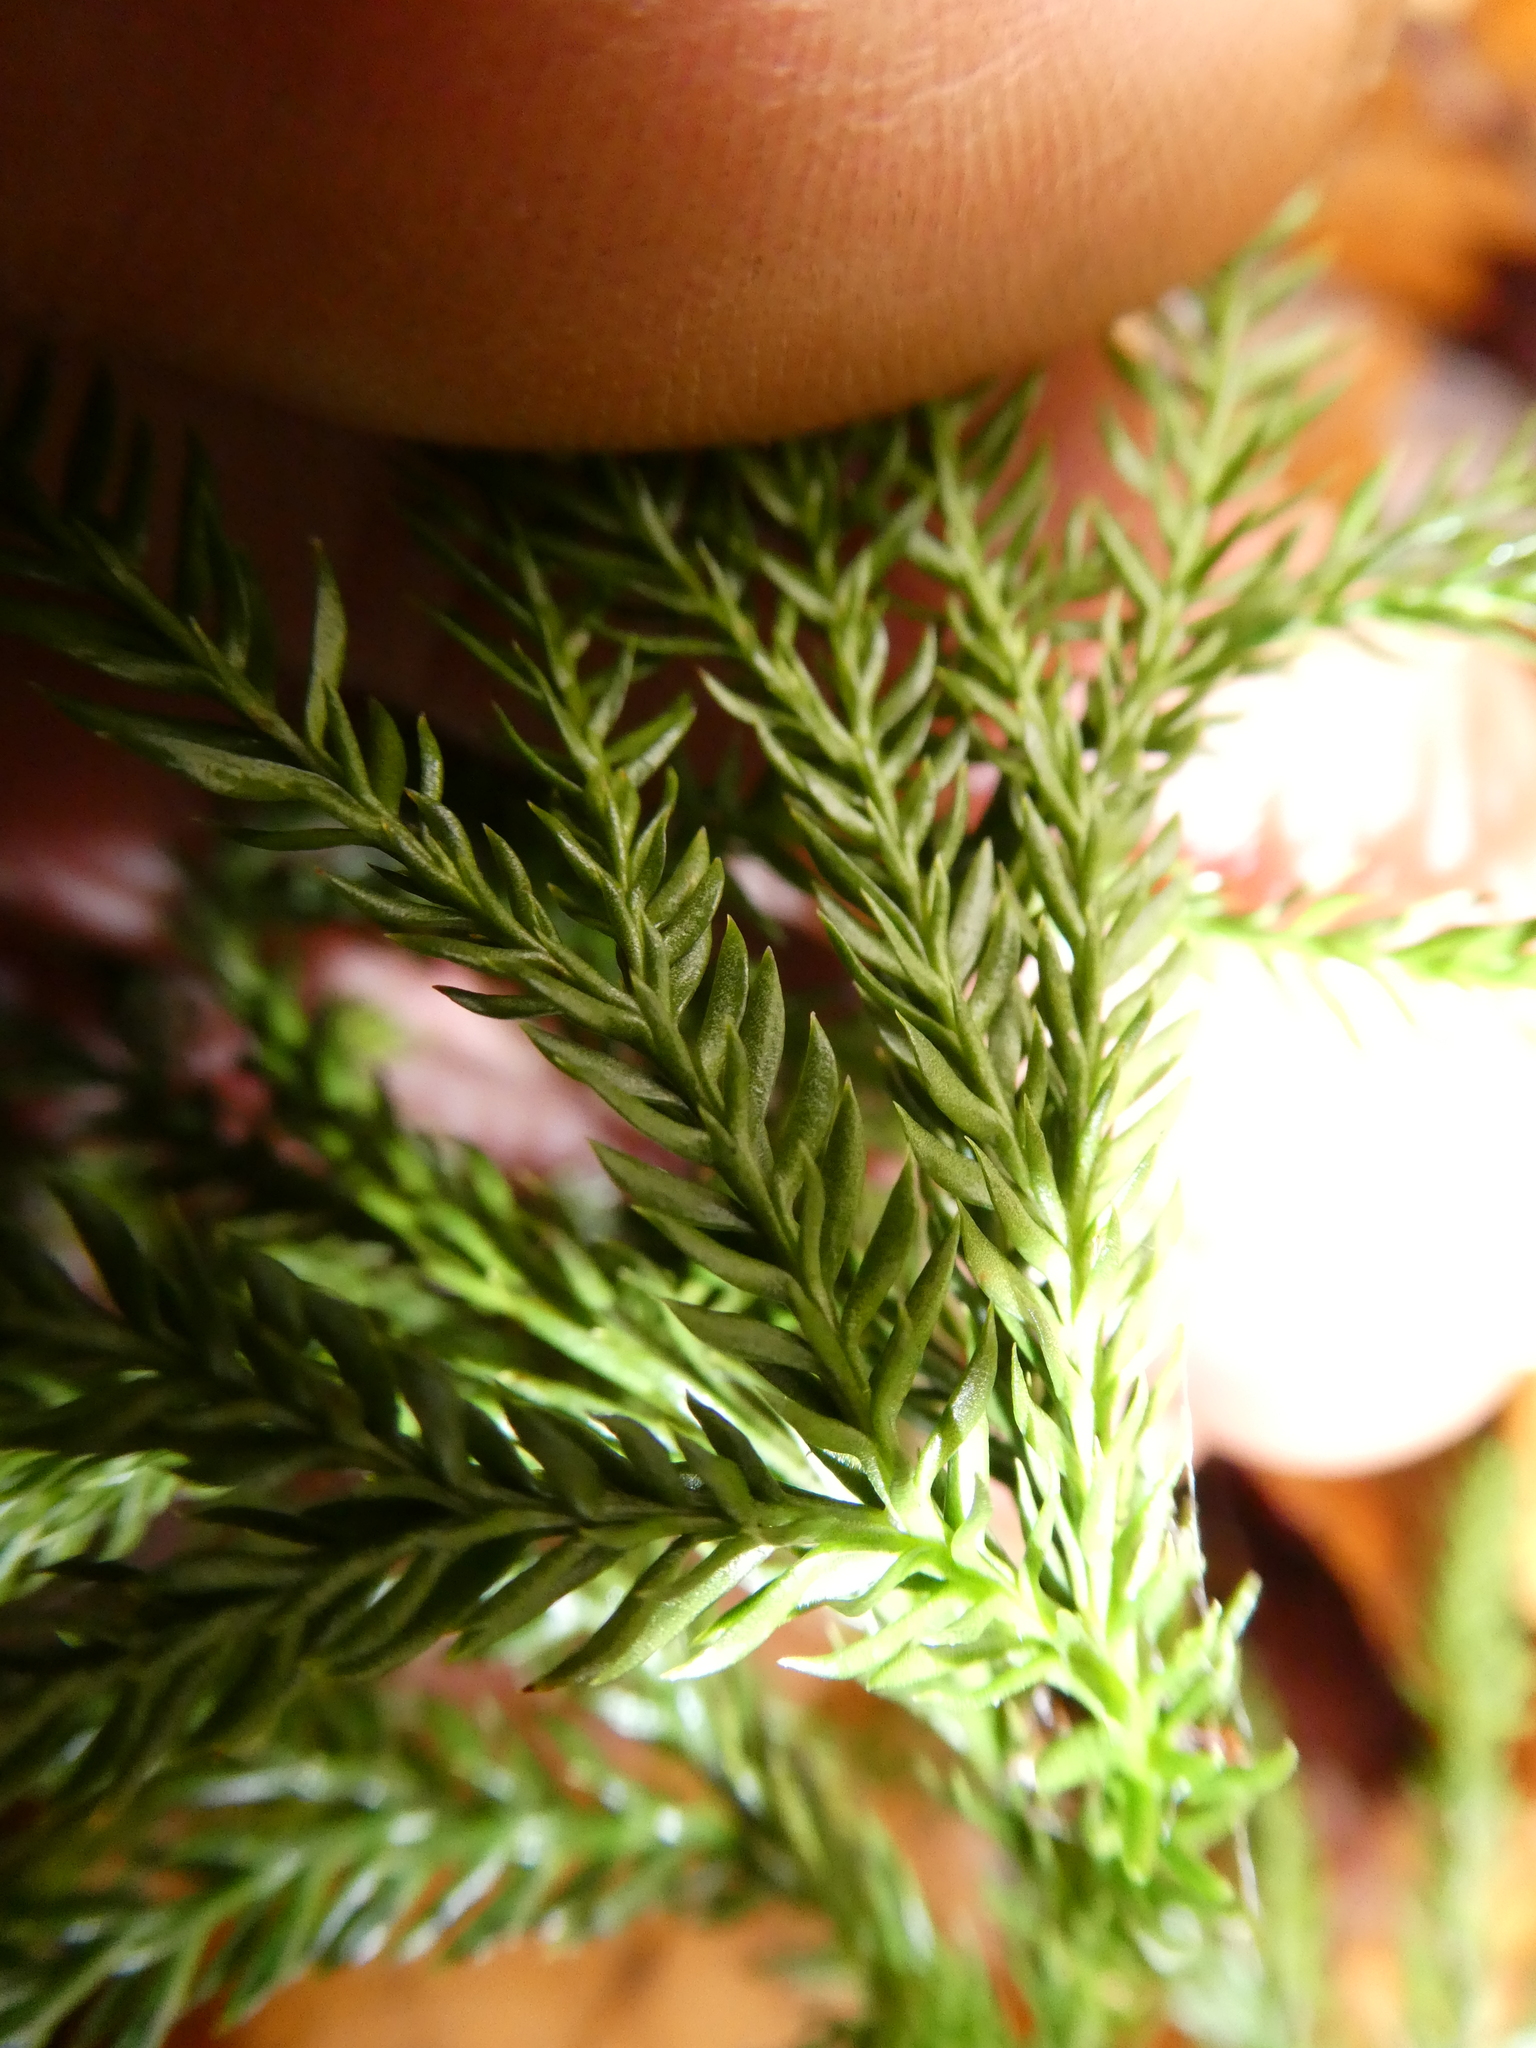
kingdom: Plantae
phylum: Tracheophyta
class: Lycopodiopsida
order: Lycopodiales
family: Lycopodiaceae
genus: Dendrolycopodium
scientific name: Dendrolycopodium obscurum
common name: Common ground-pine
